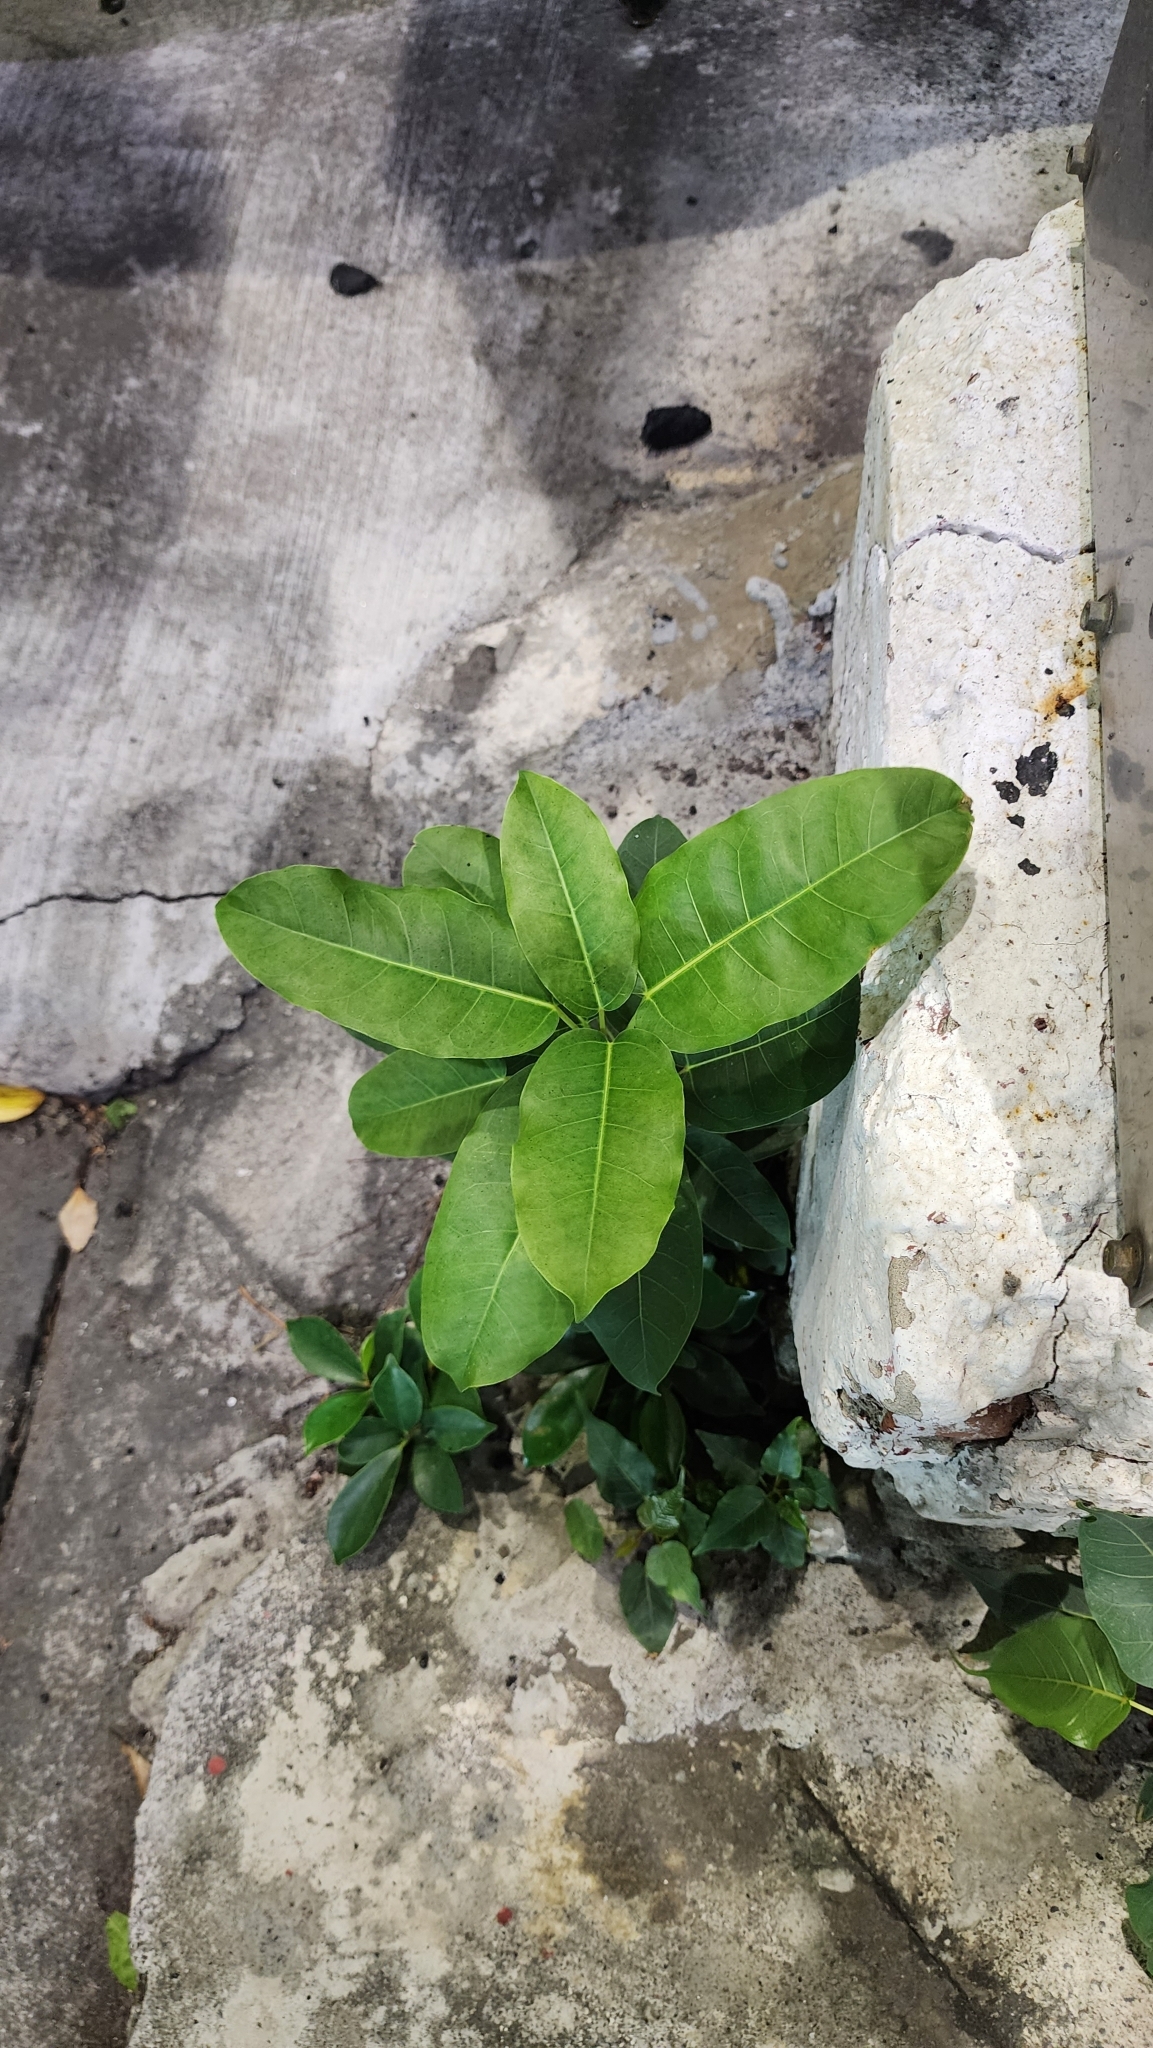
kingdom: Plantae
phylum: Tracheophyta
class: Magnoliopsida
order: Rosales
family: Moraceae
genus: Ficus
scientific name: Ficus subpisocarpa
